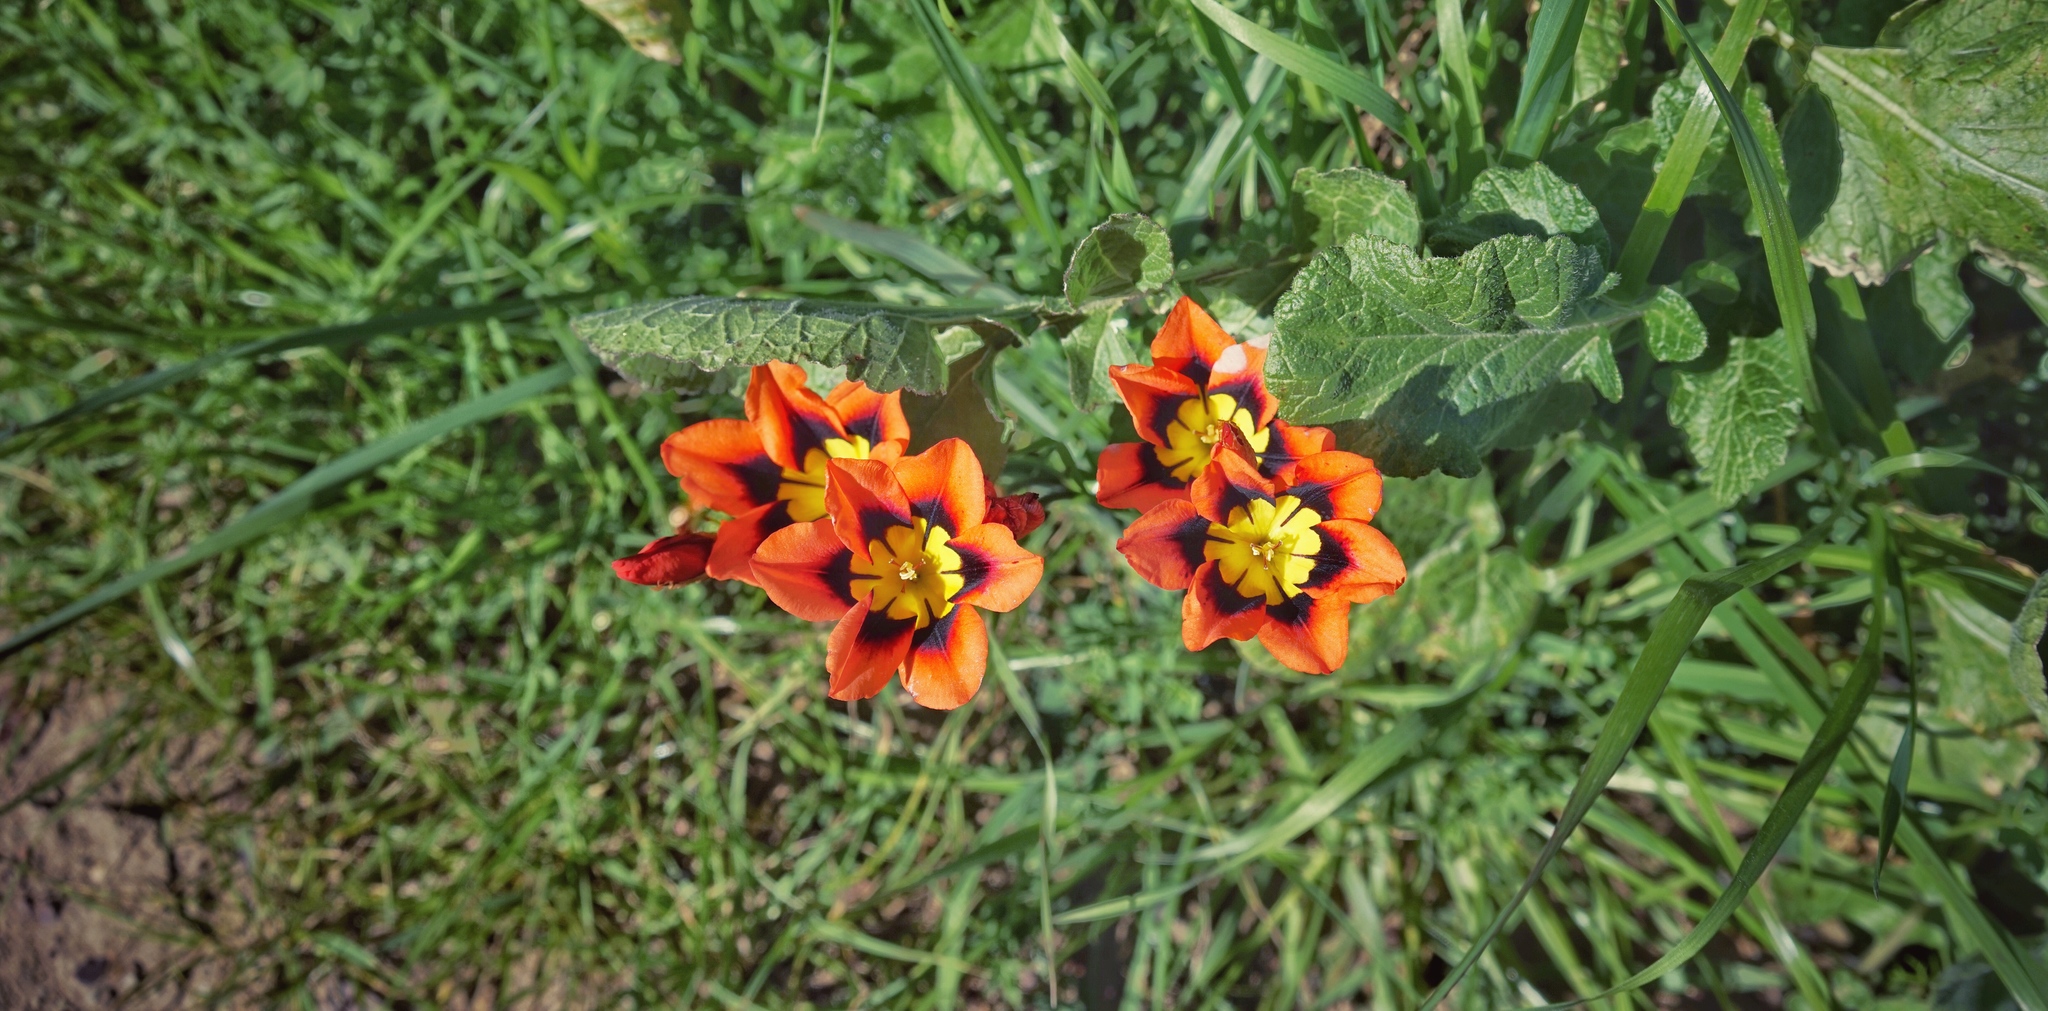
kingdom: Plantae
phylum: Tracheophyta
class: Liliopsida
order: Asparagales
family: Iridaceae
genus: Sparaxis
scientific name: Sparaxis tricolor
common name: Wandflower
